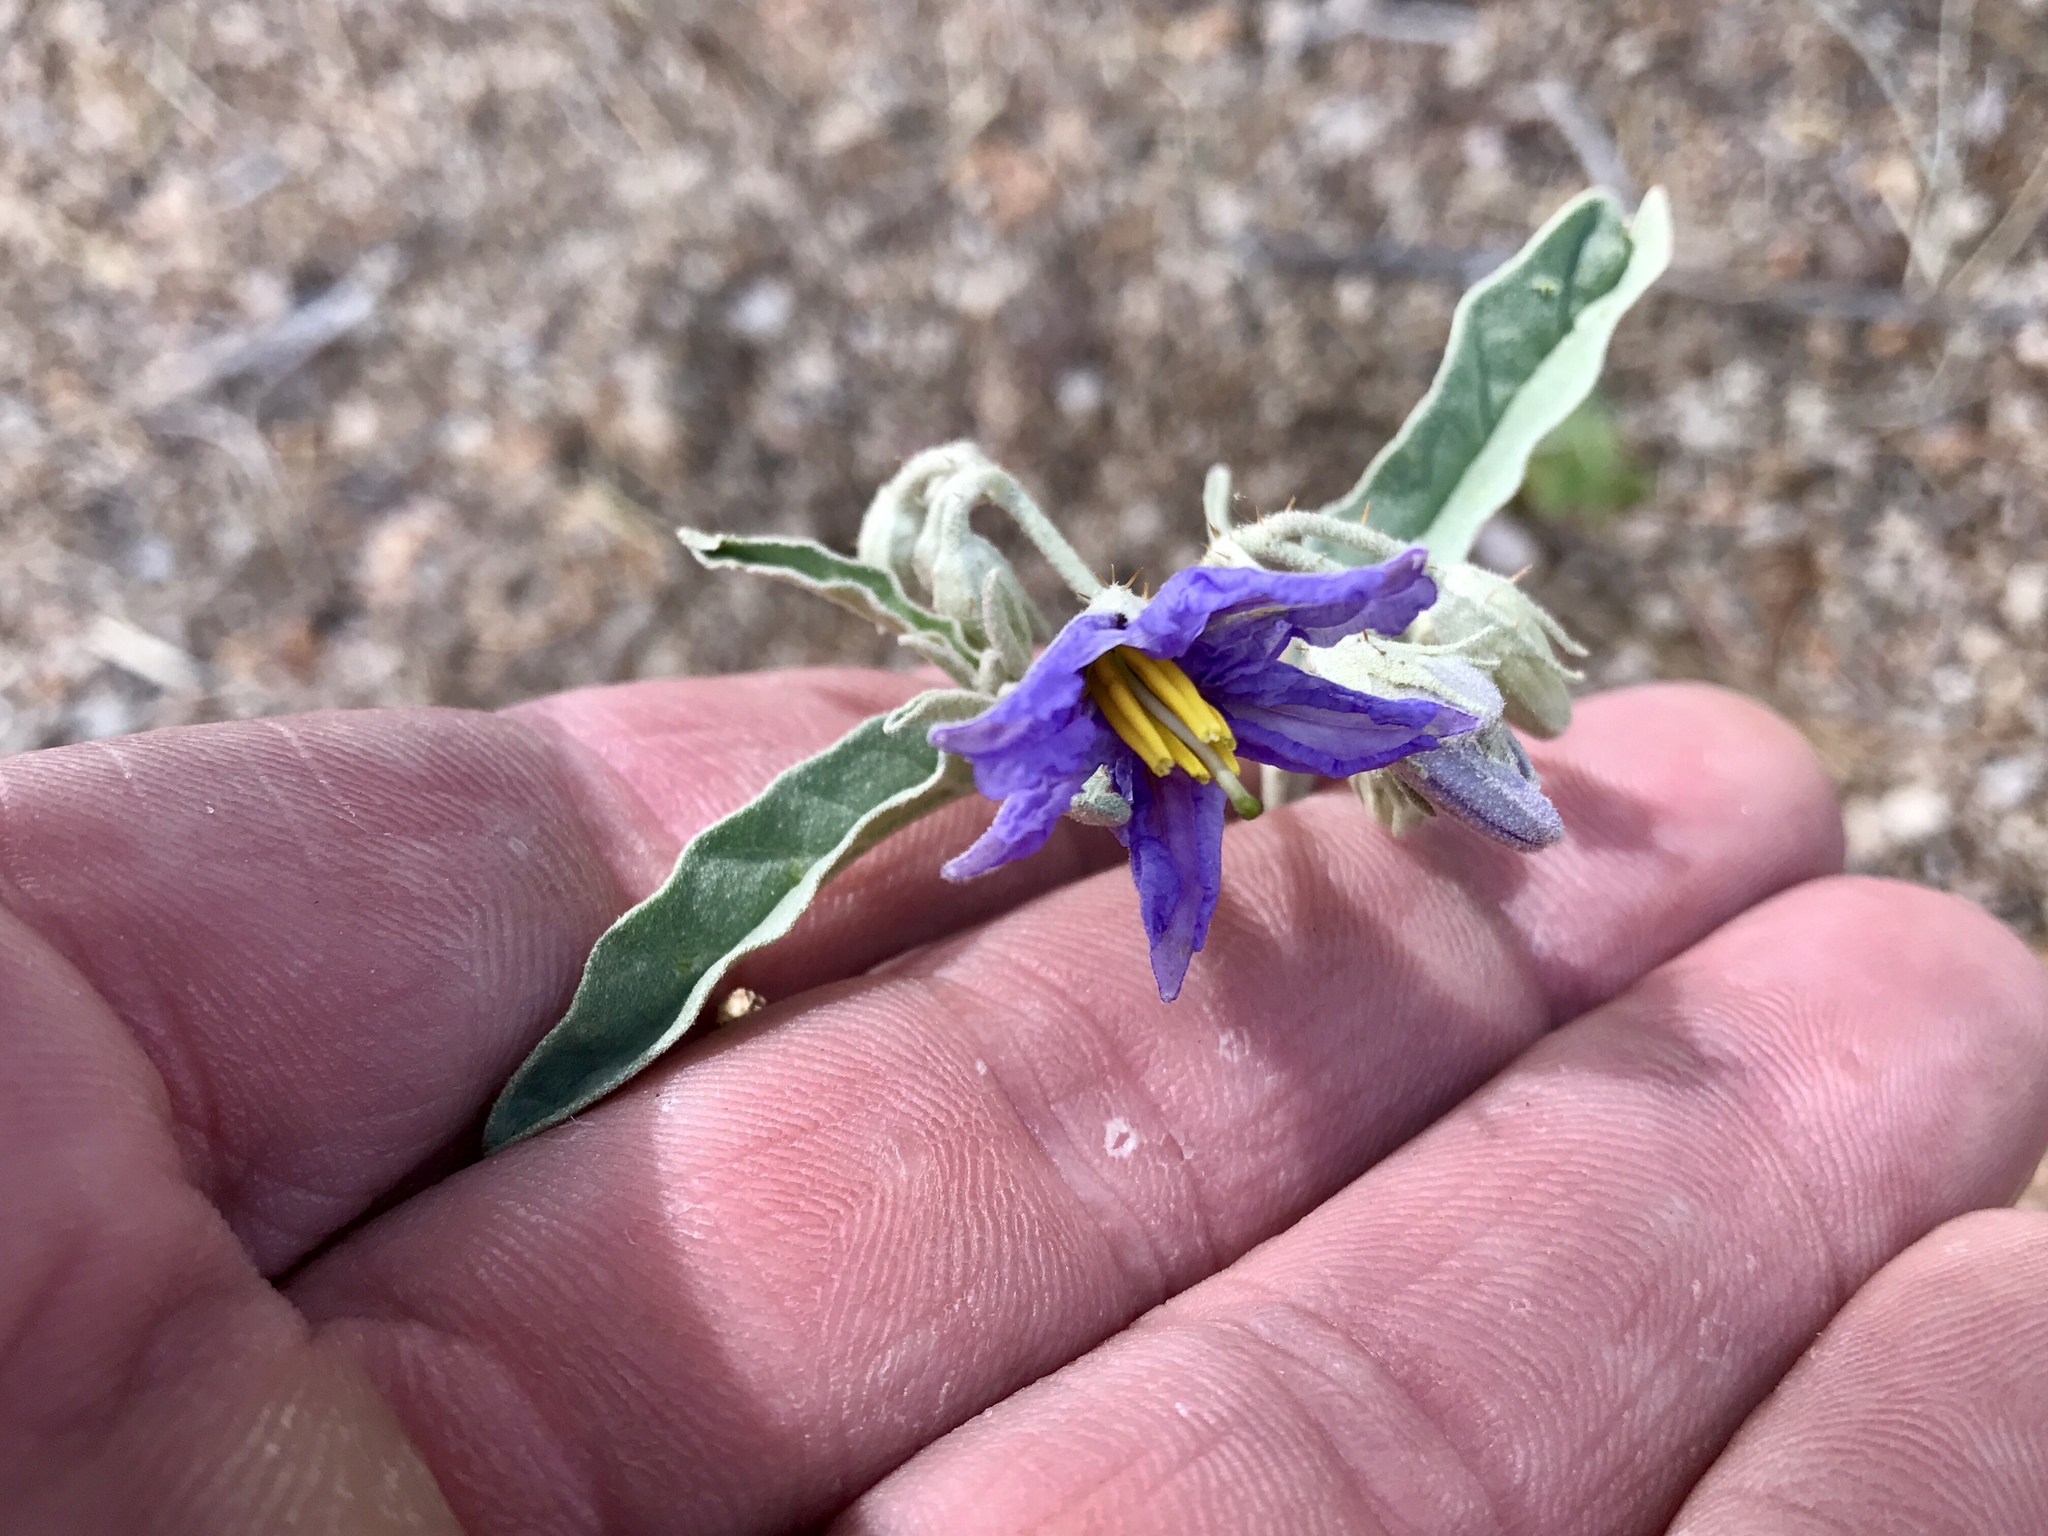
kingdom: Plantae
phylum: Tracheophyta
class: Magnoliopsida
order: Solanales
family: Solanaceae
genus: Solanum
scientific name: Solanum elaeagnifolium
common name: Silverleaf nightshade
